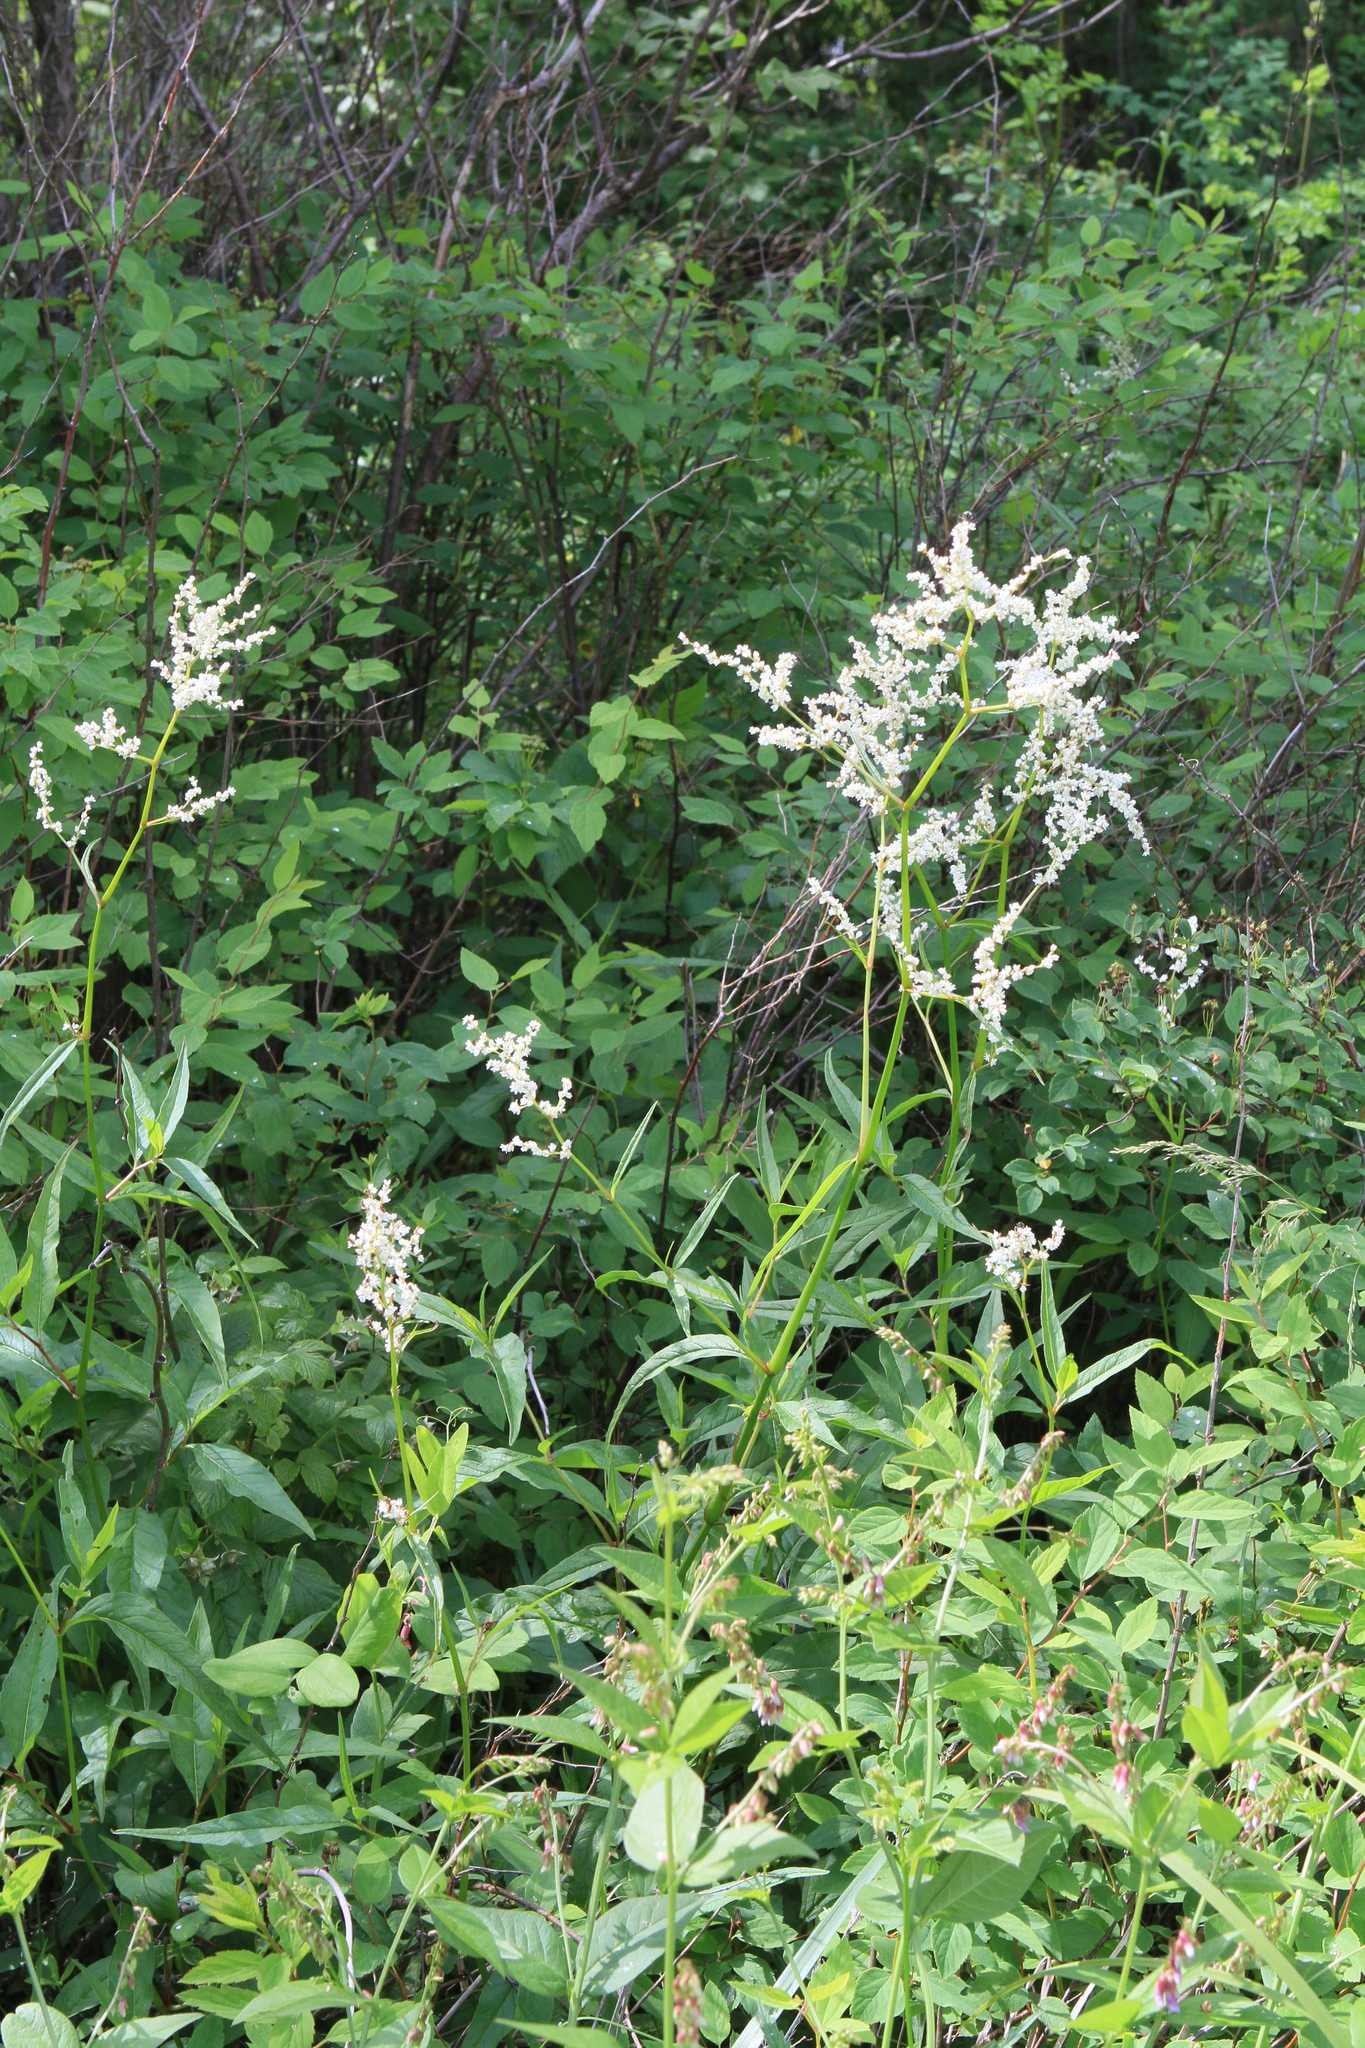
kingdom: Plantae
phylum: Tracheophyta
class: Magnoliopsida
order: Caryophyllales
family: Polygonaceae
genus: Koenigia
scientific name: Koenigia alpina
